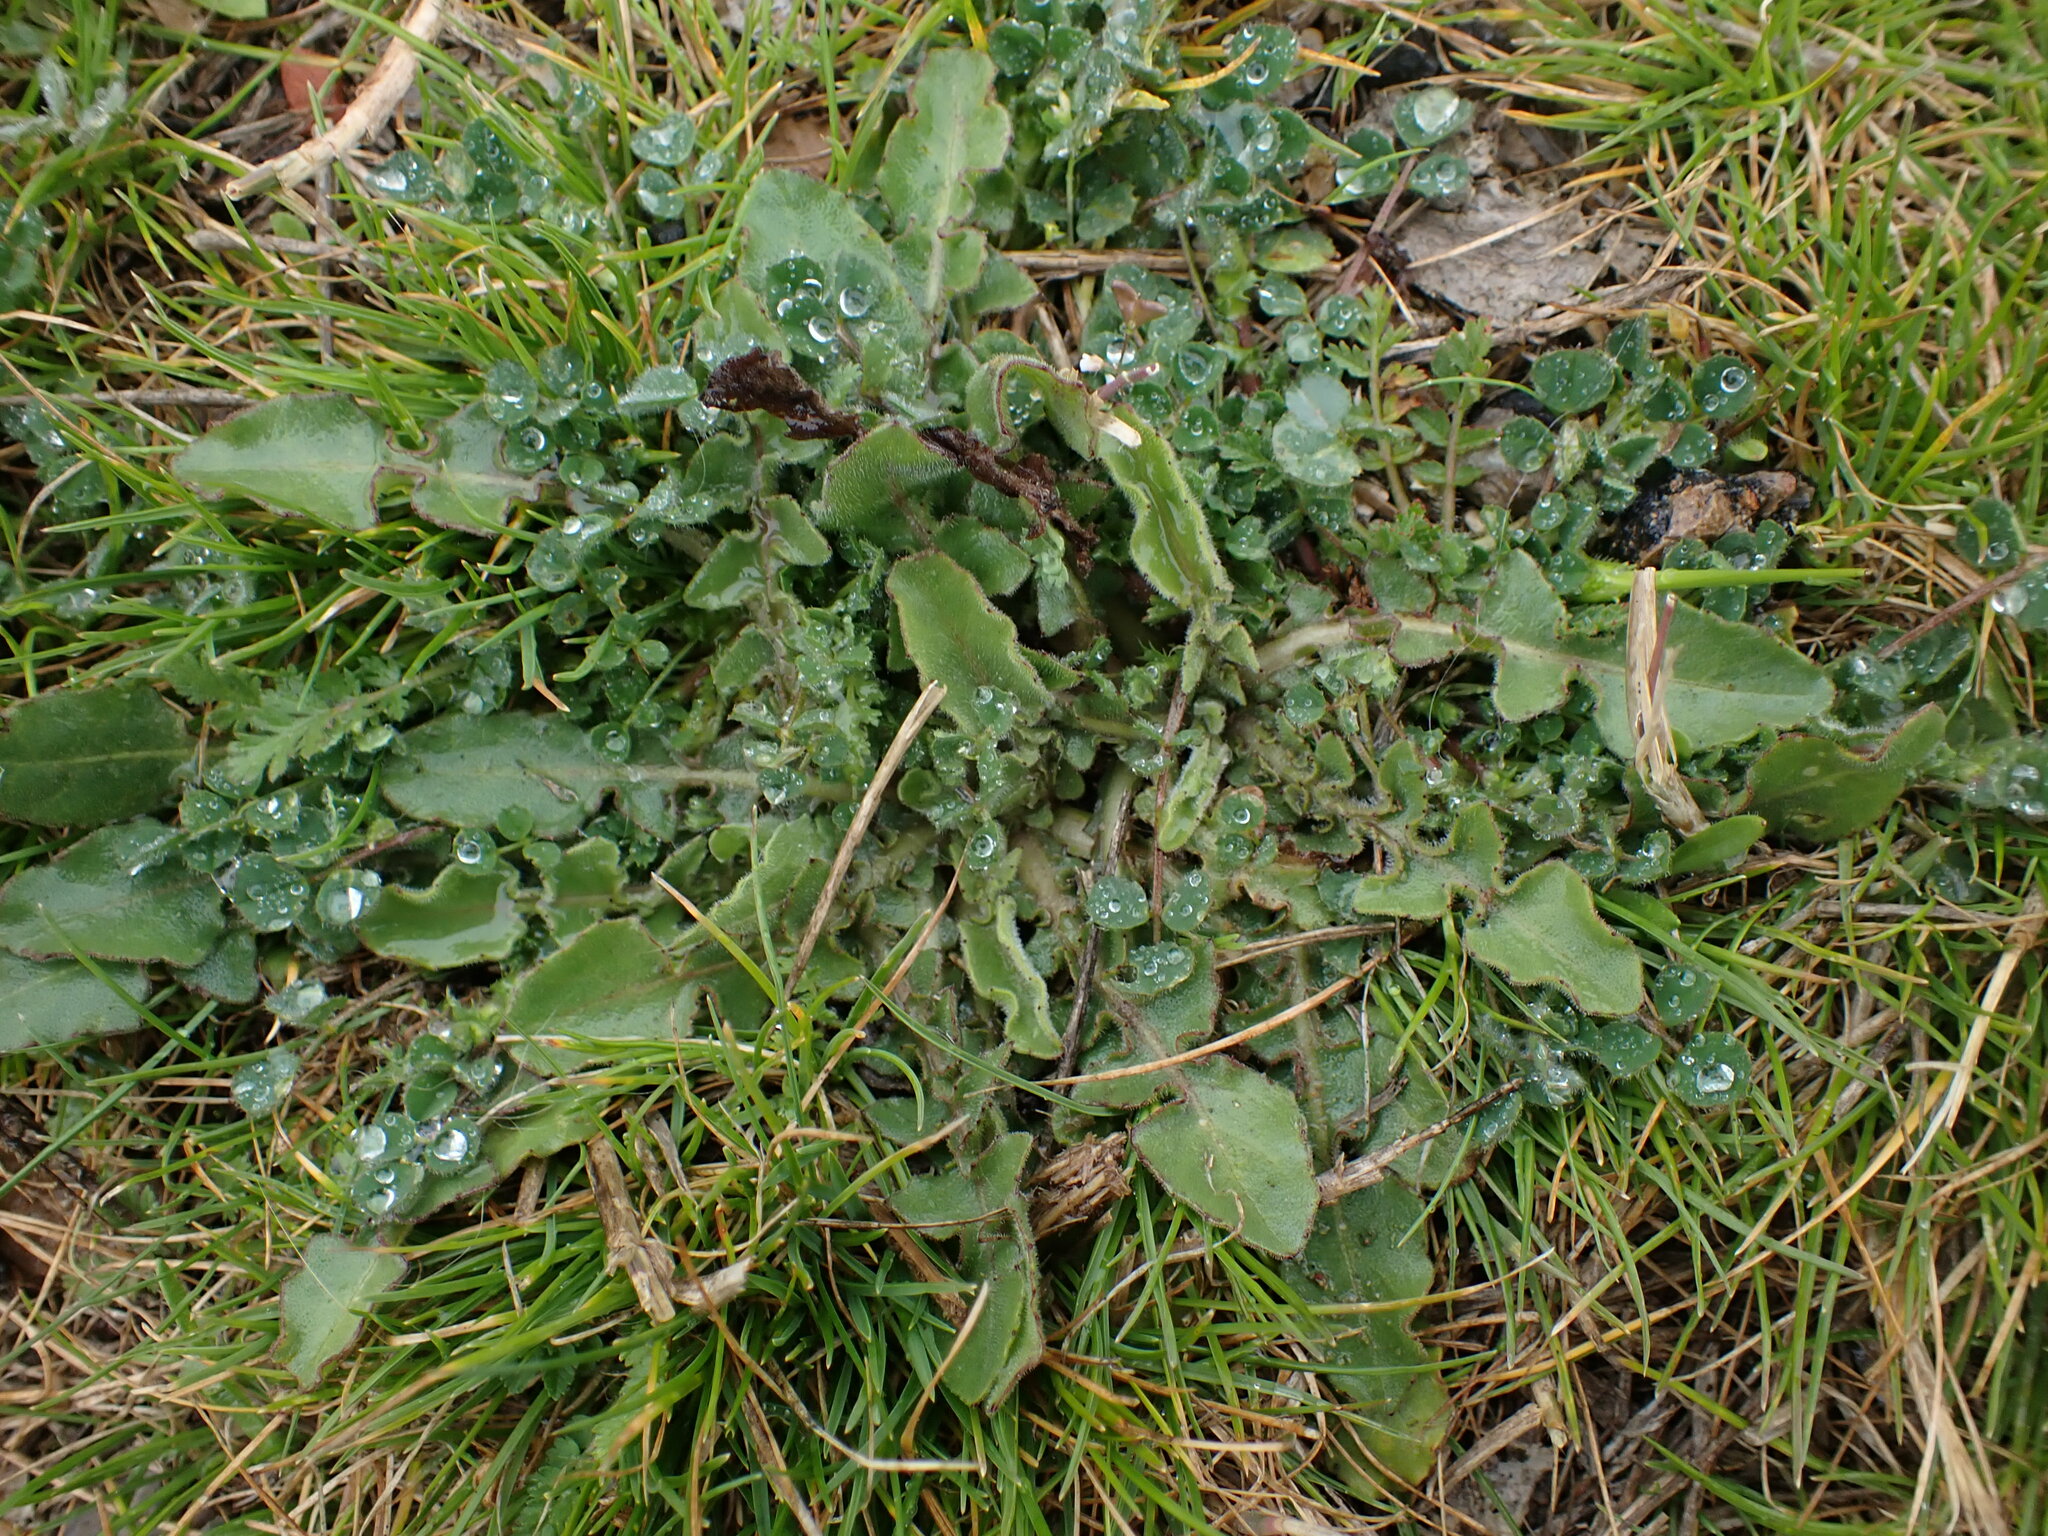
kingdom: Plantae
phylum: Tracheophyta
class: Magnoliopsida
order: Asterales
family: Asteraceae
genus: Urospermum
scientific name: Urospermum dalechampii
